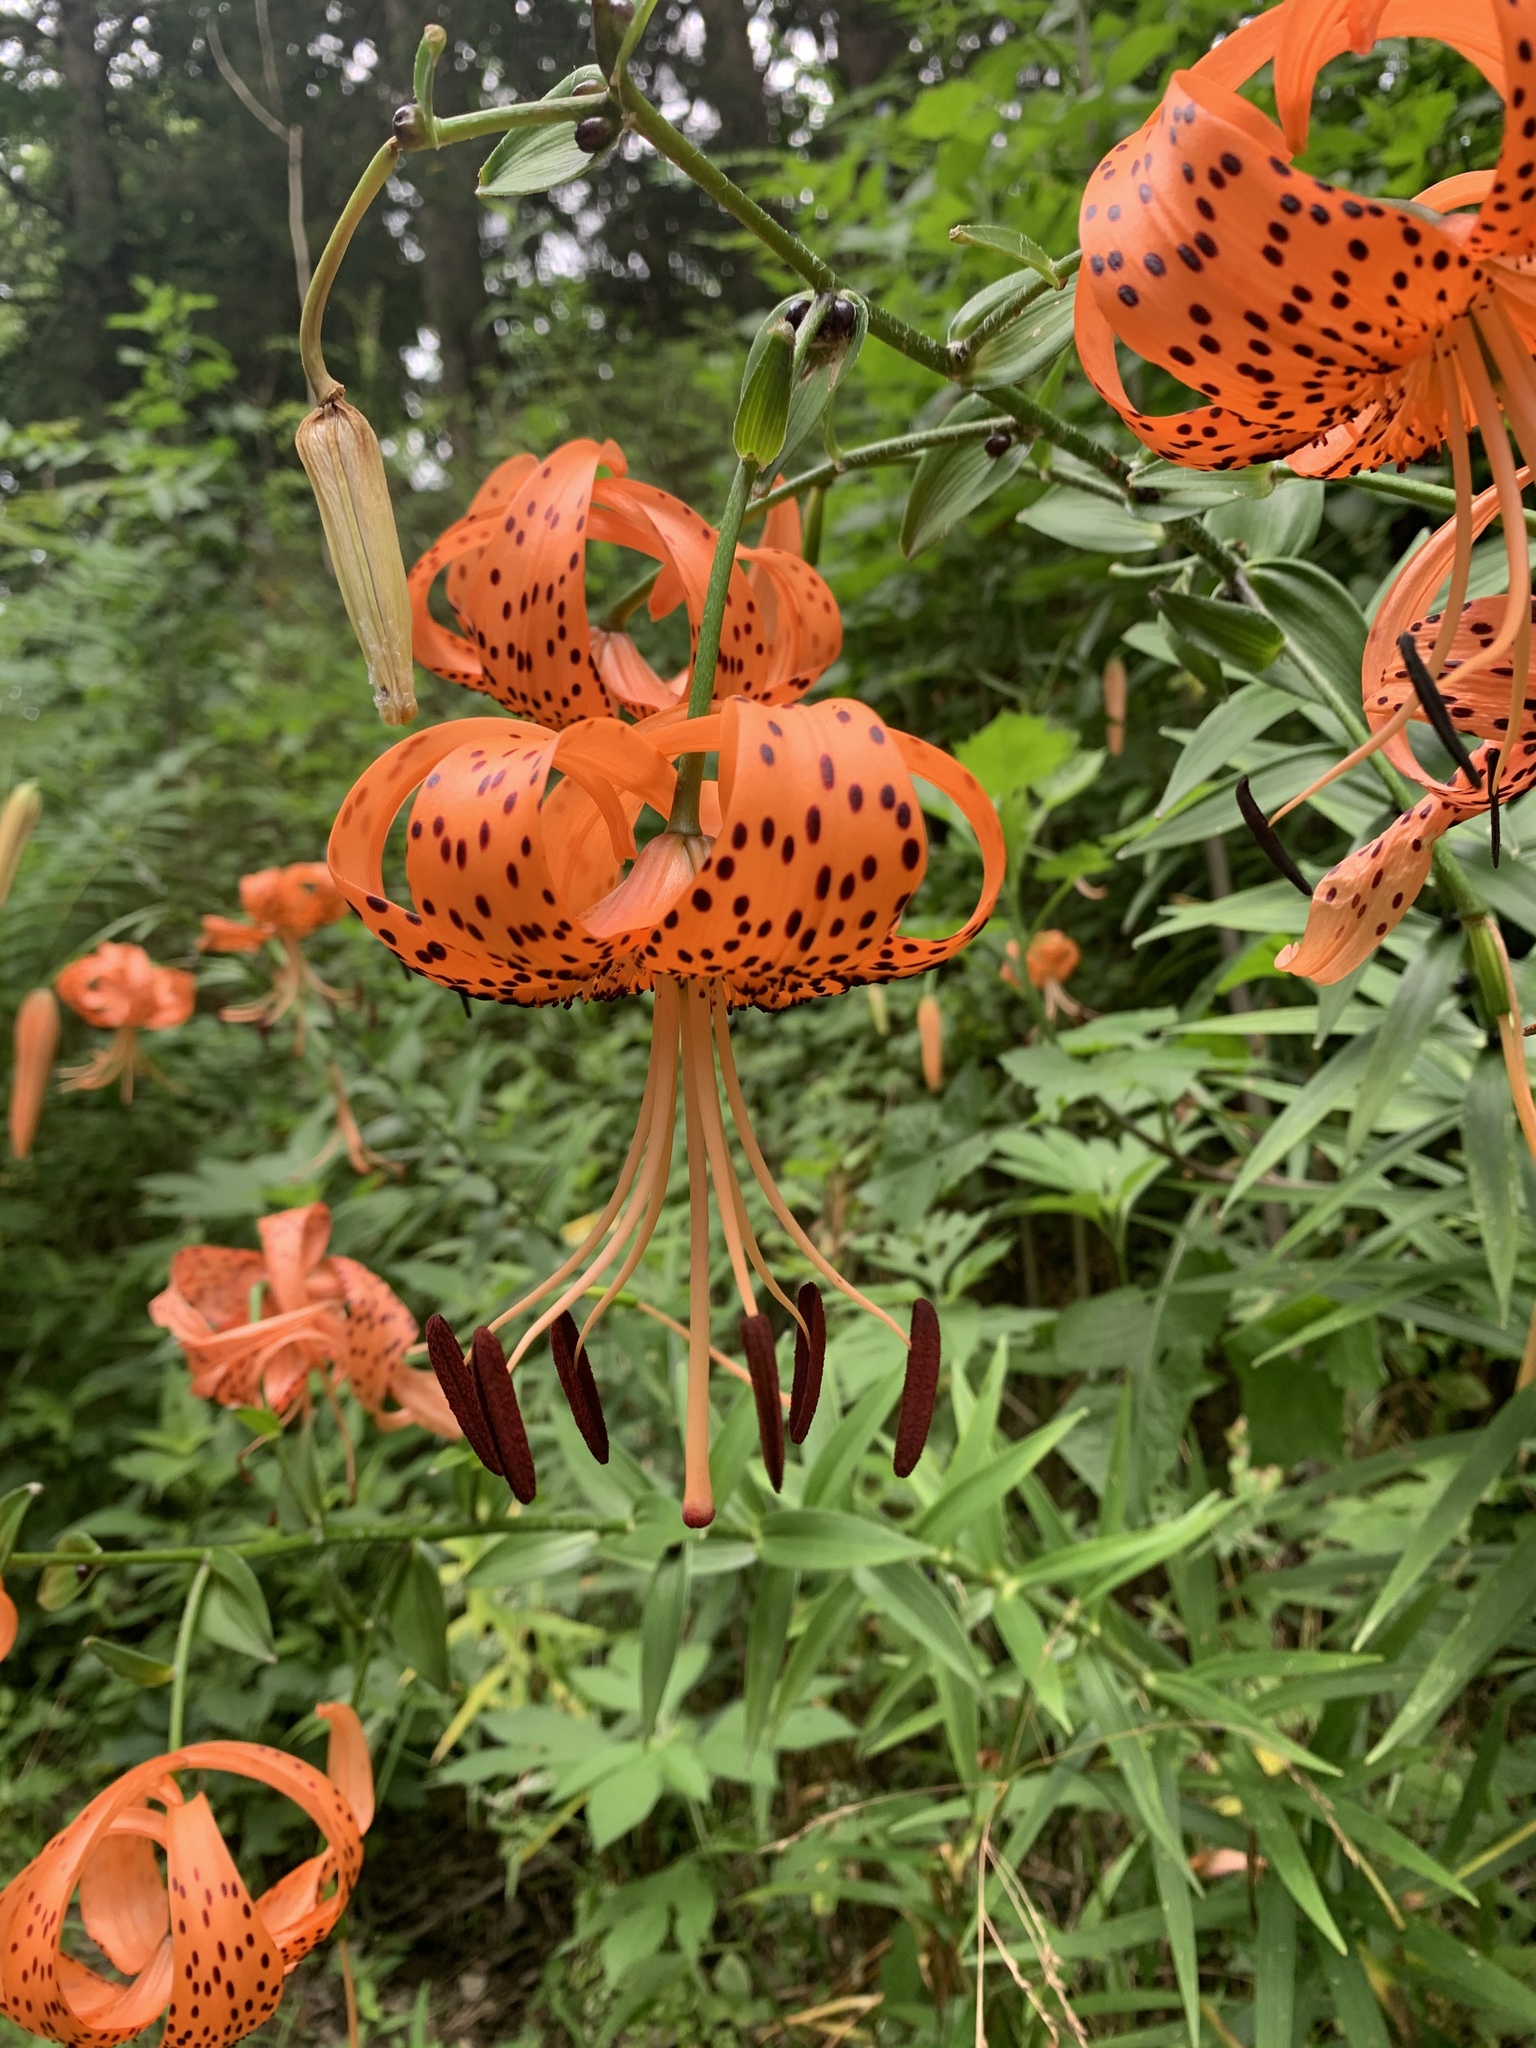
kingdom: Plantae
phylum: Tracheophyta
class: Liliopsida
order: Liliales
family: Liliaceae
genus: Lilium
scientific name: Lilium lancifolium
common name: Tiger lily
